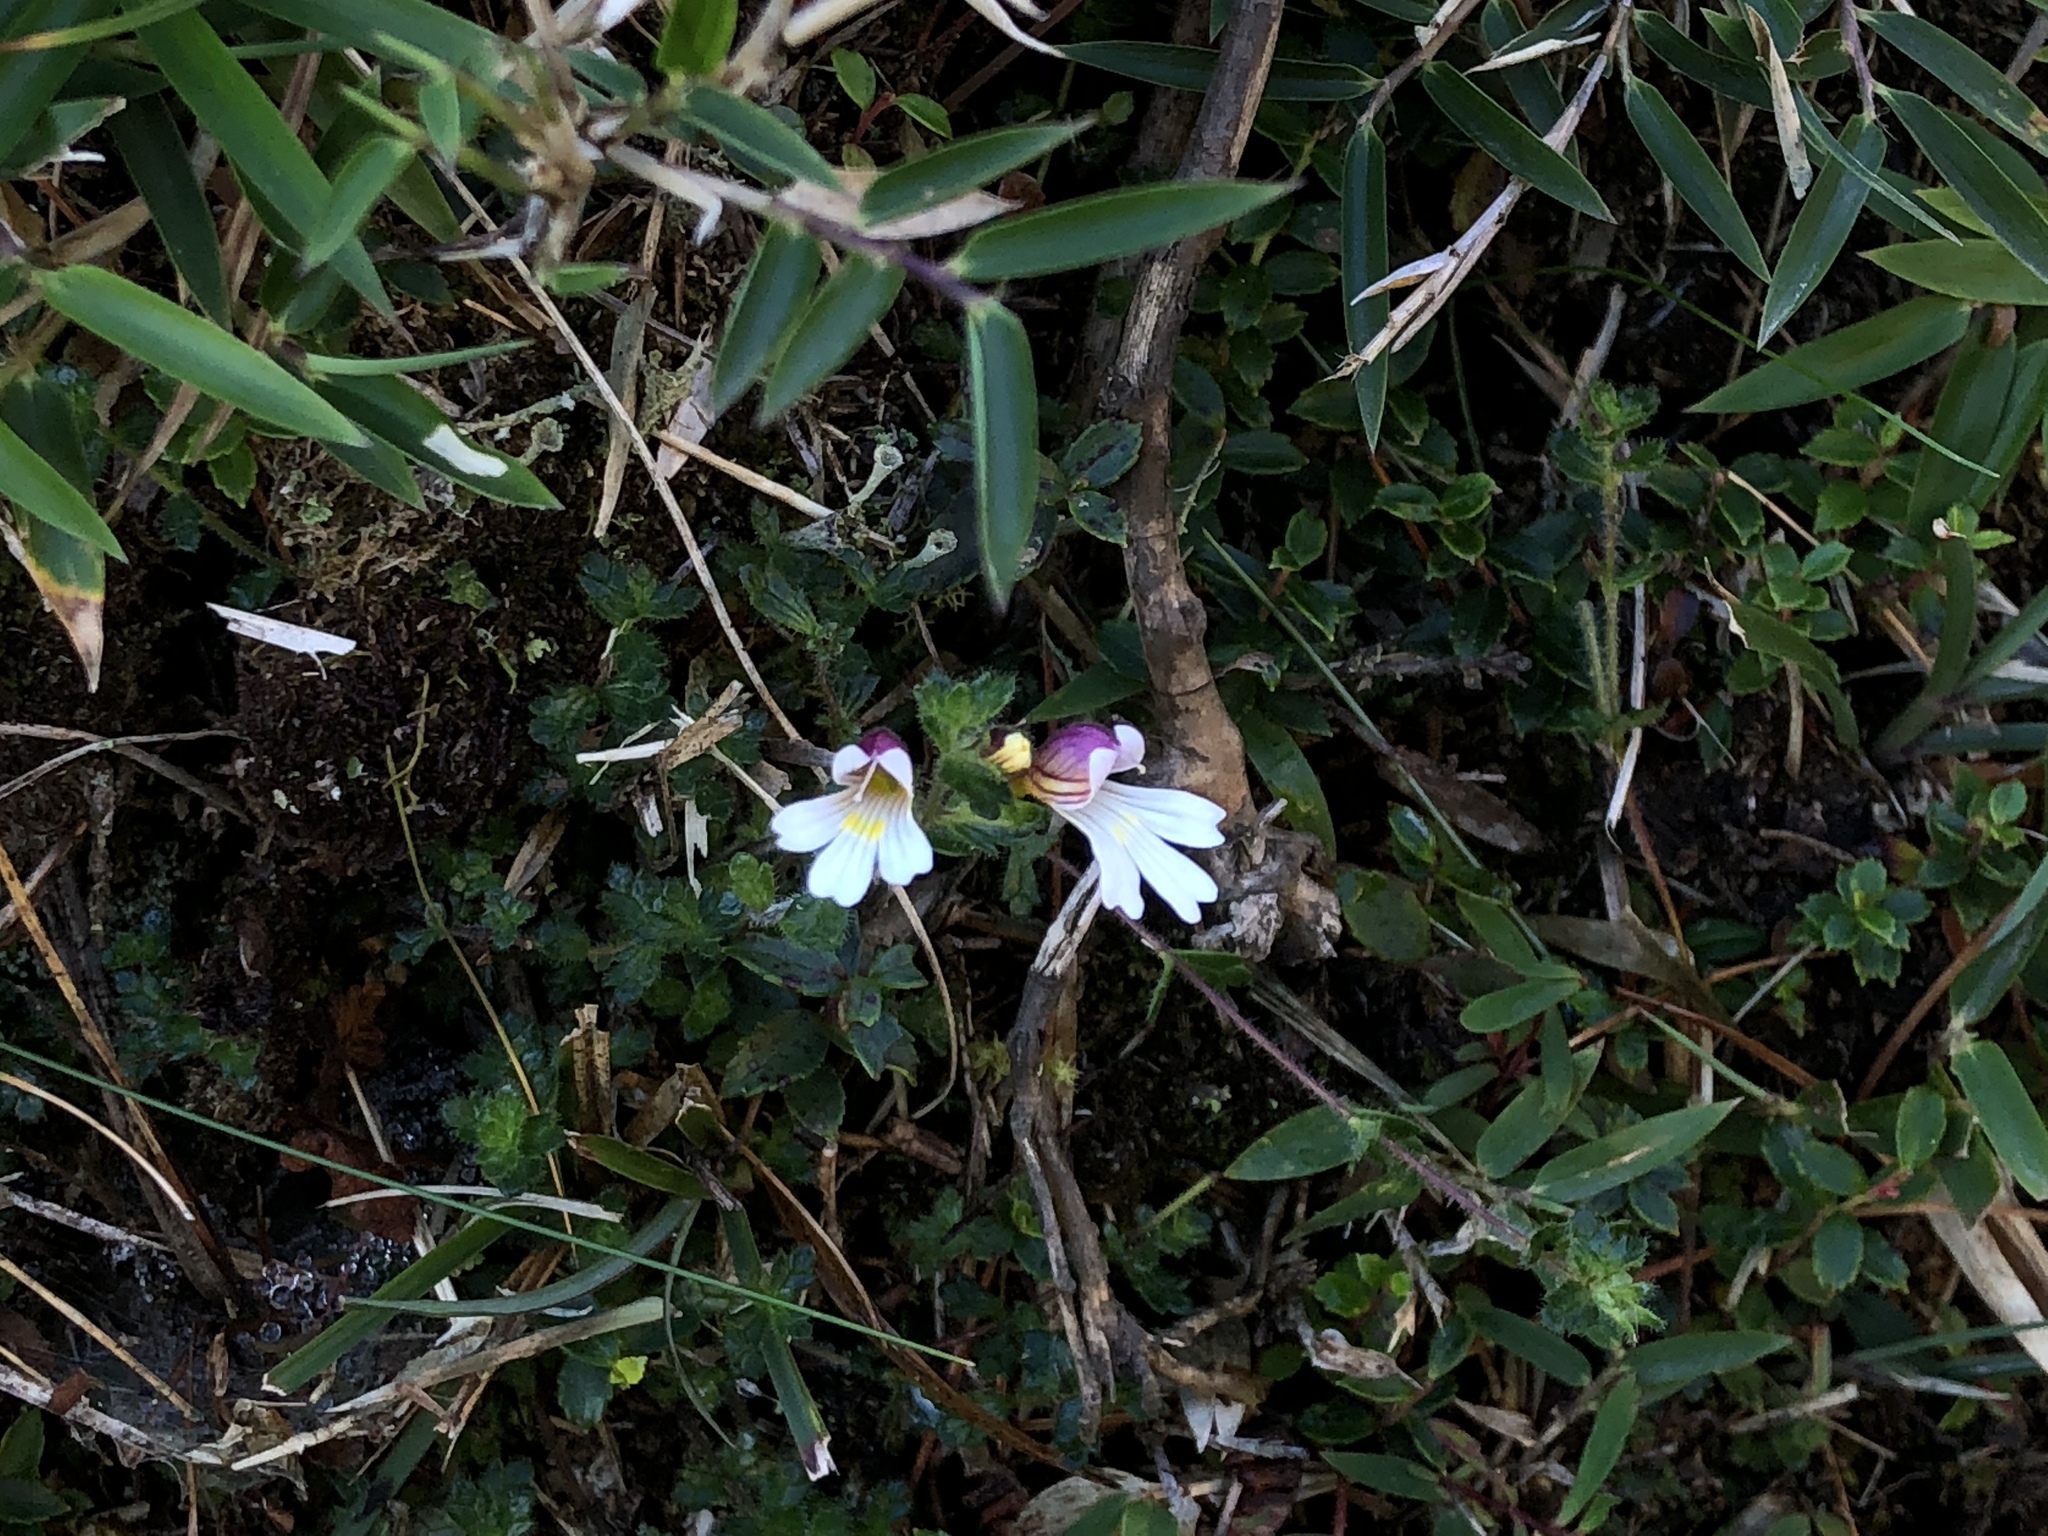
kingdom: Plantae
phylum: Tracheophyta
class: Magnoliopsida
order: Lamiales
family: Orobanchaceae
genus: Euphrasia
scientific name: Euphrasia transmorrisonensis
